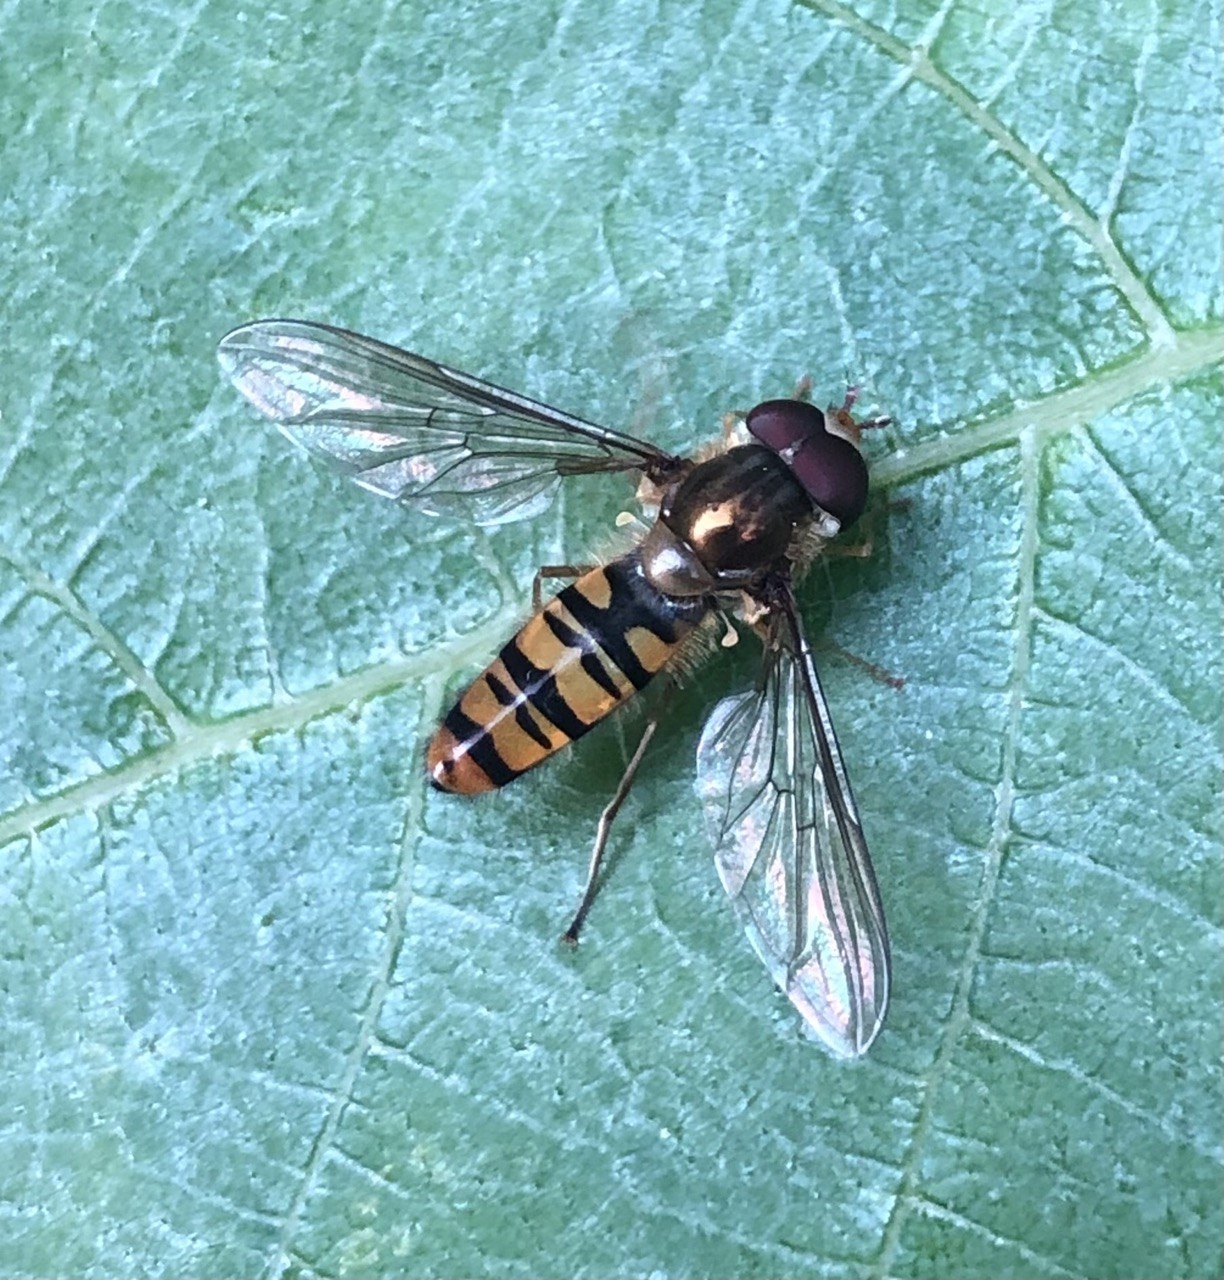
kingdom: Animalia
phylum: Arthropoda
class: Insecta
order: Diptera
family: Syrphidae
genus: Episyrphus
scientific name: Episyrphus balteatus
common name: Marmalade hoverfly
